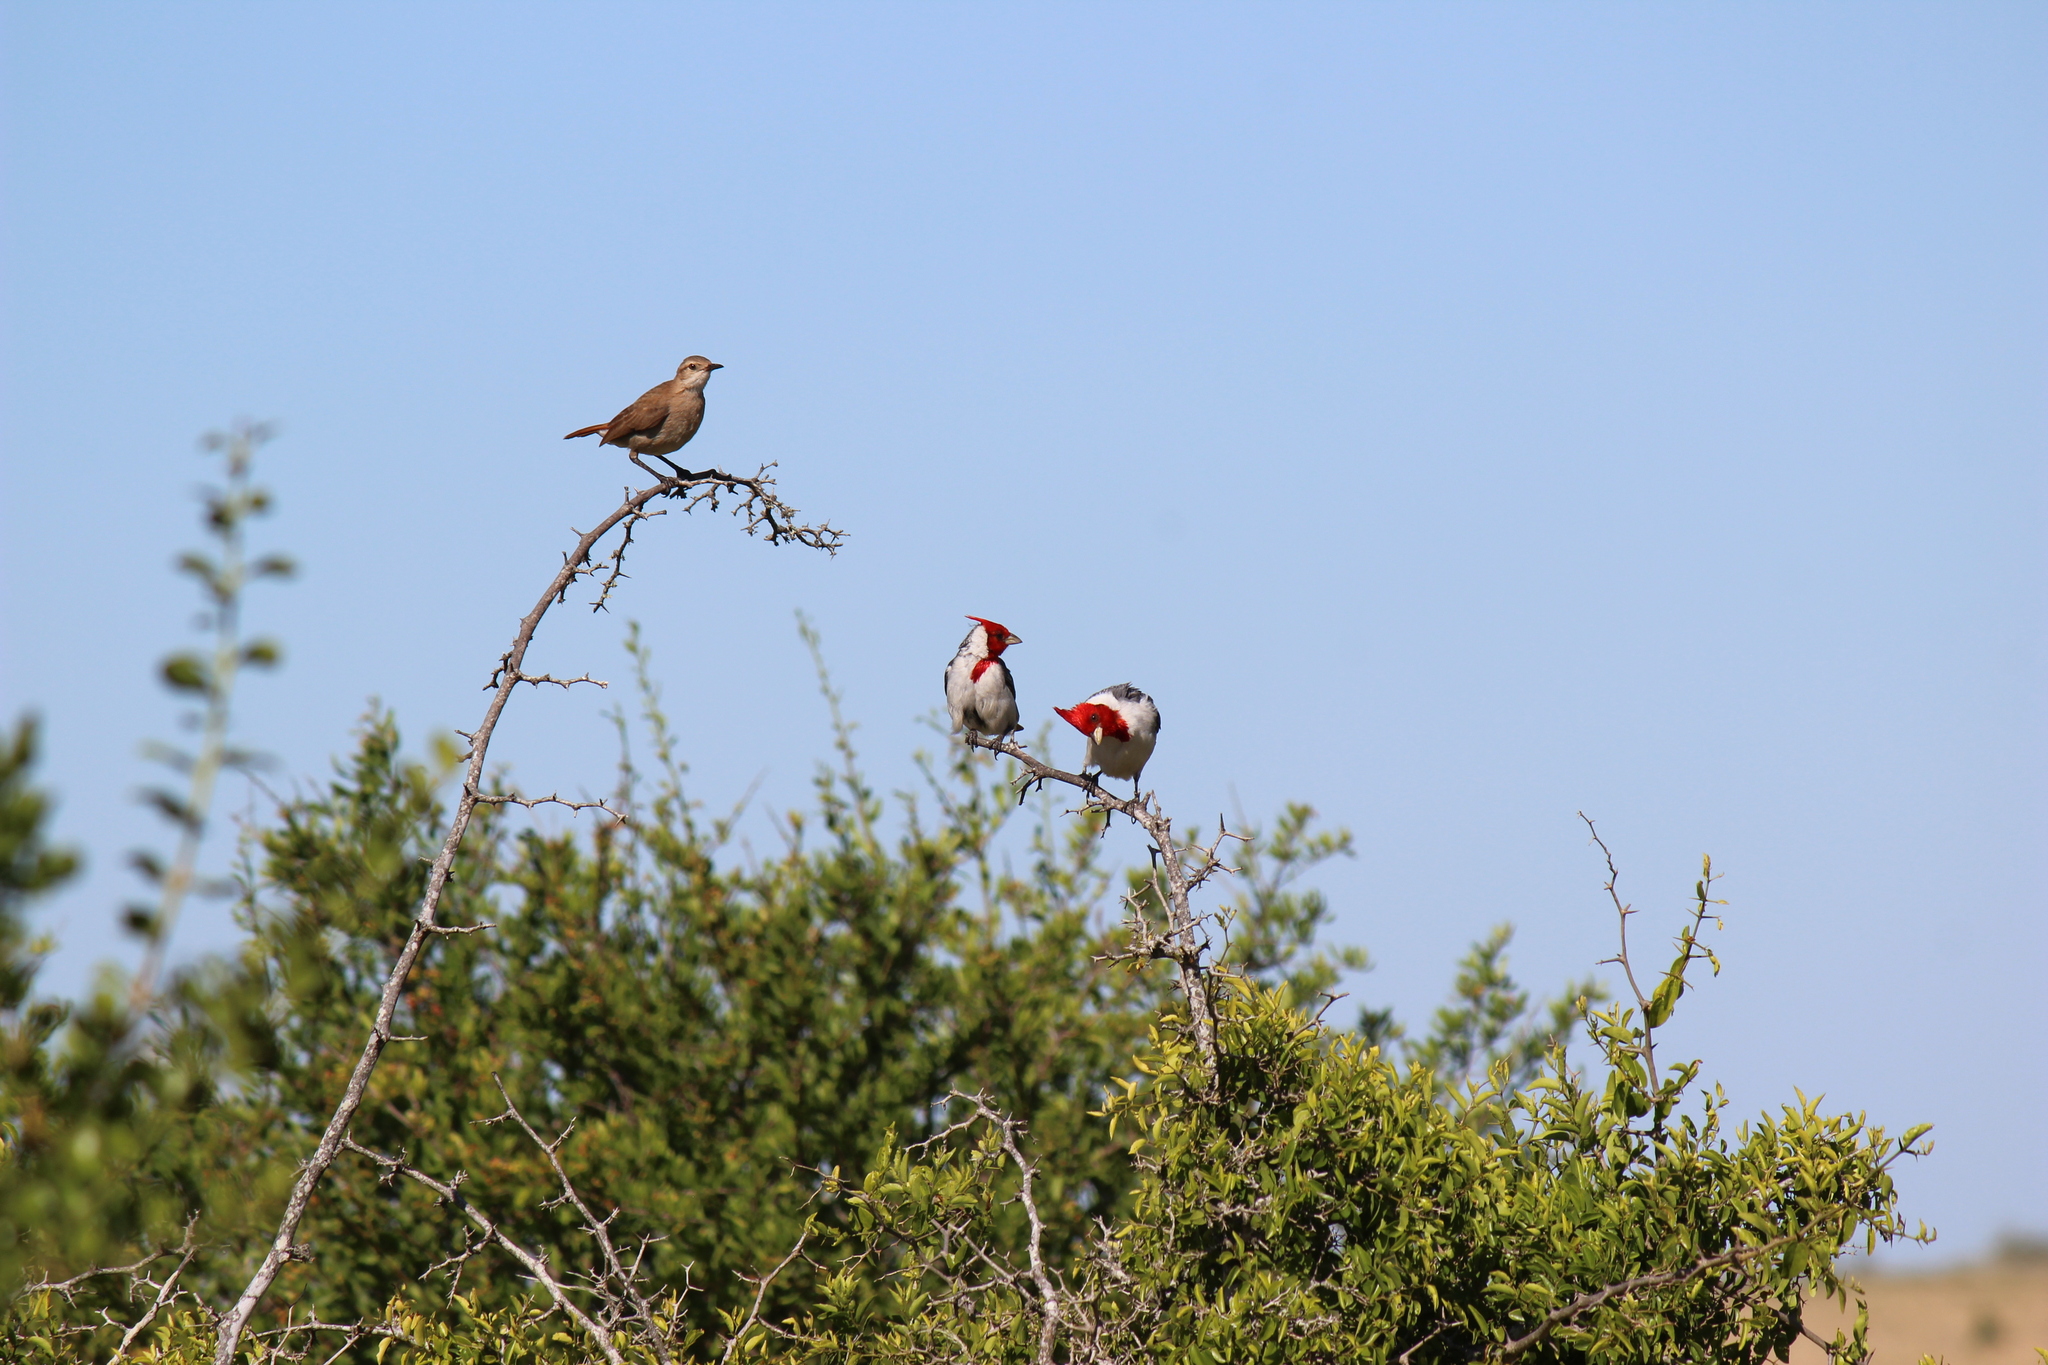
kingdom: Animalia
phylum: Chordata
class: Aves
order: Passeriformes
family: Furnariidae
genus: Furnarius
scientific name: Furnarius rufus
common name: Rufous hornero
